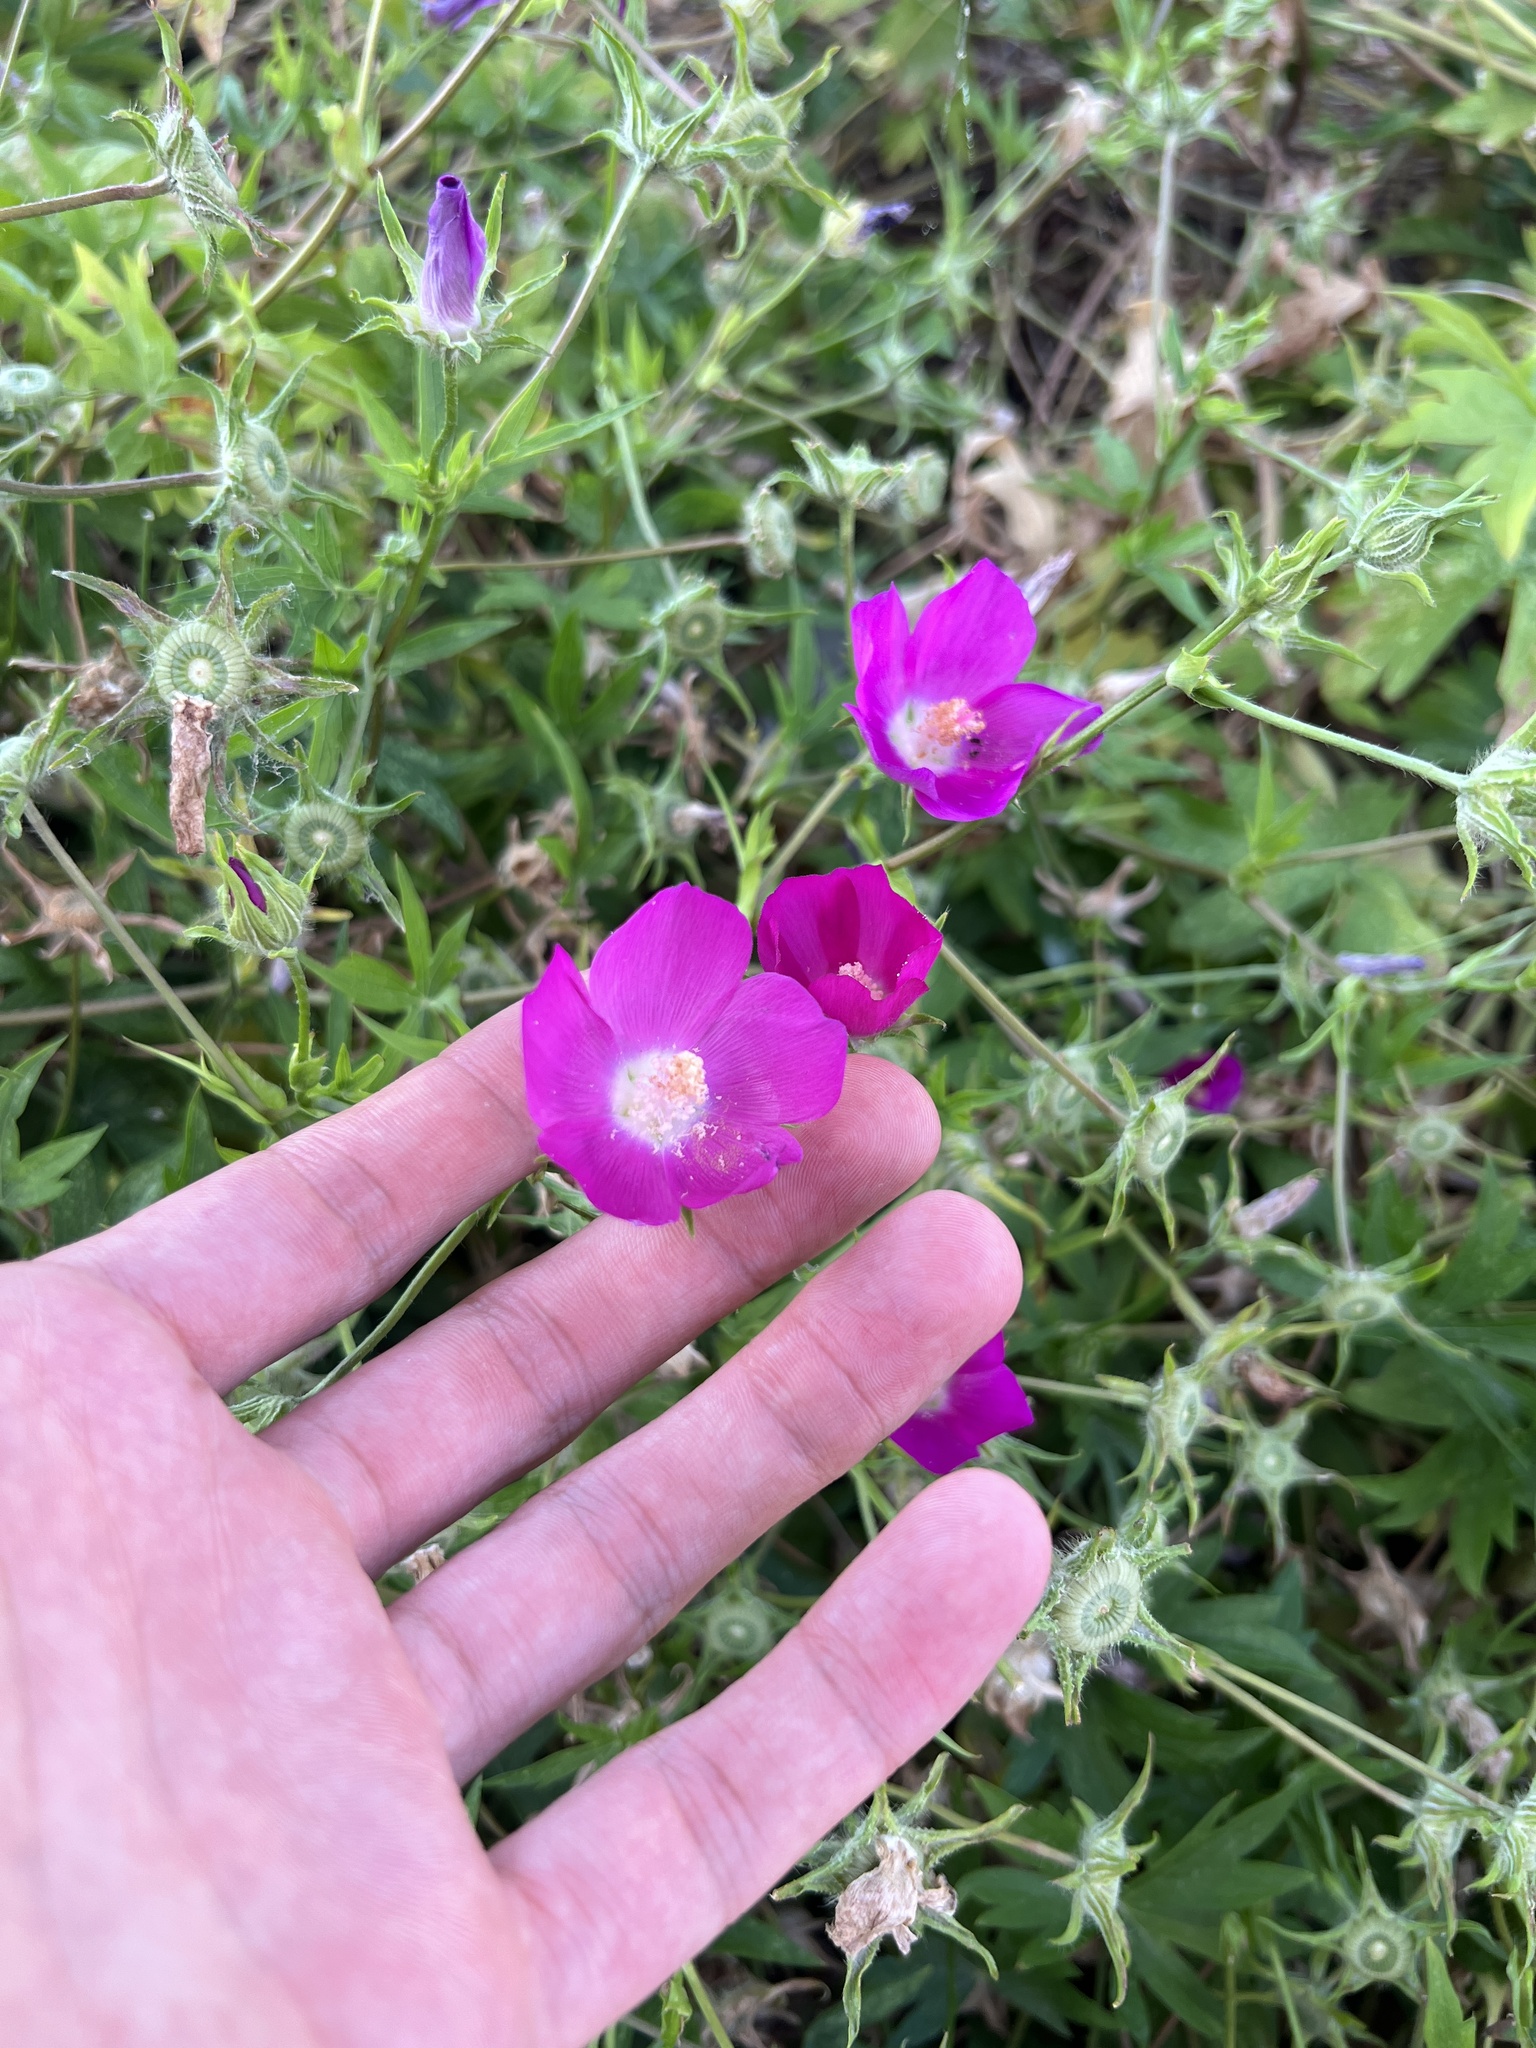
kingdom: Plantae
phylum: Tracheophyta
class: Magnoliopsida
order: Malvales
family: Malvaceae
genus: Callirhoe
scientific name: Callirhoe involucrata
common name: Purple poppy-mallow
